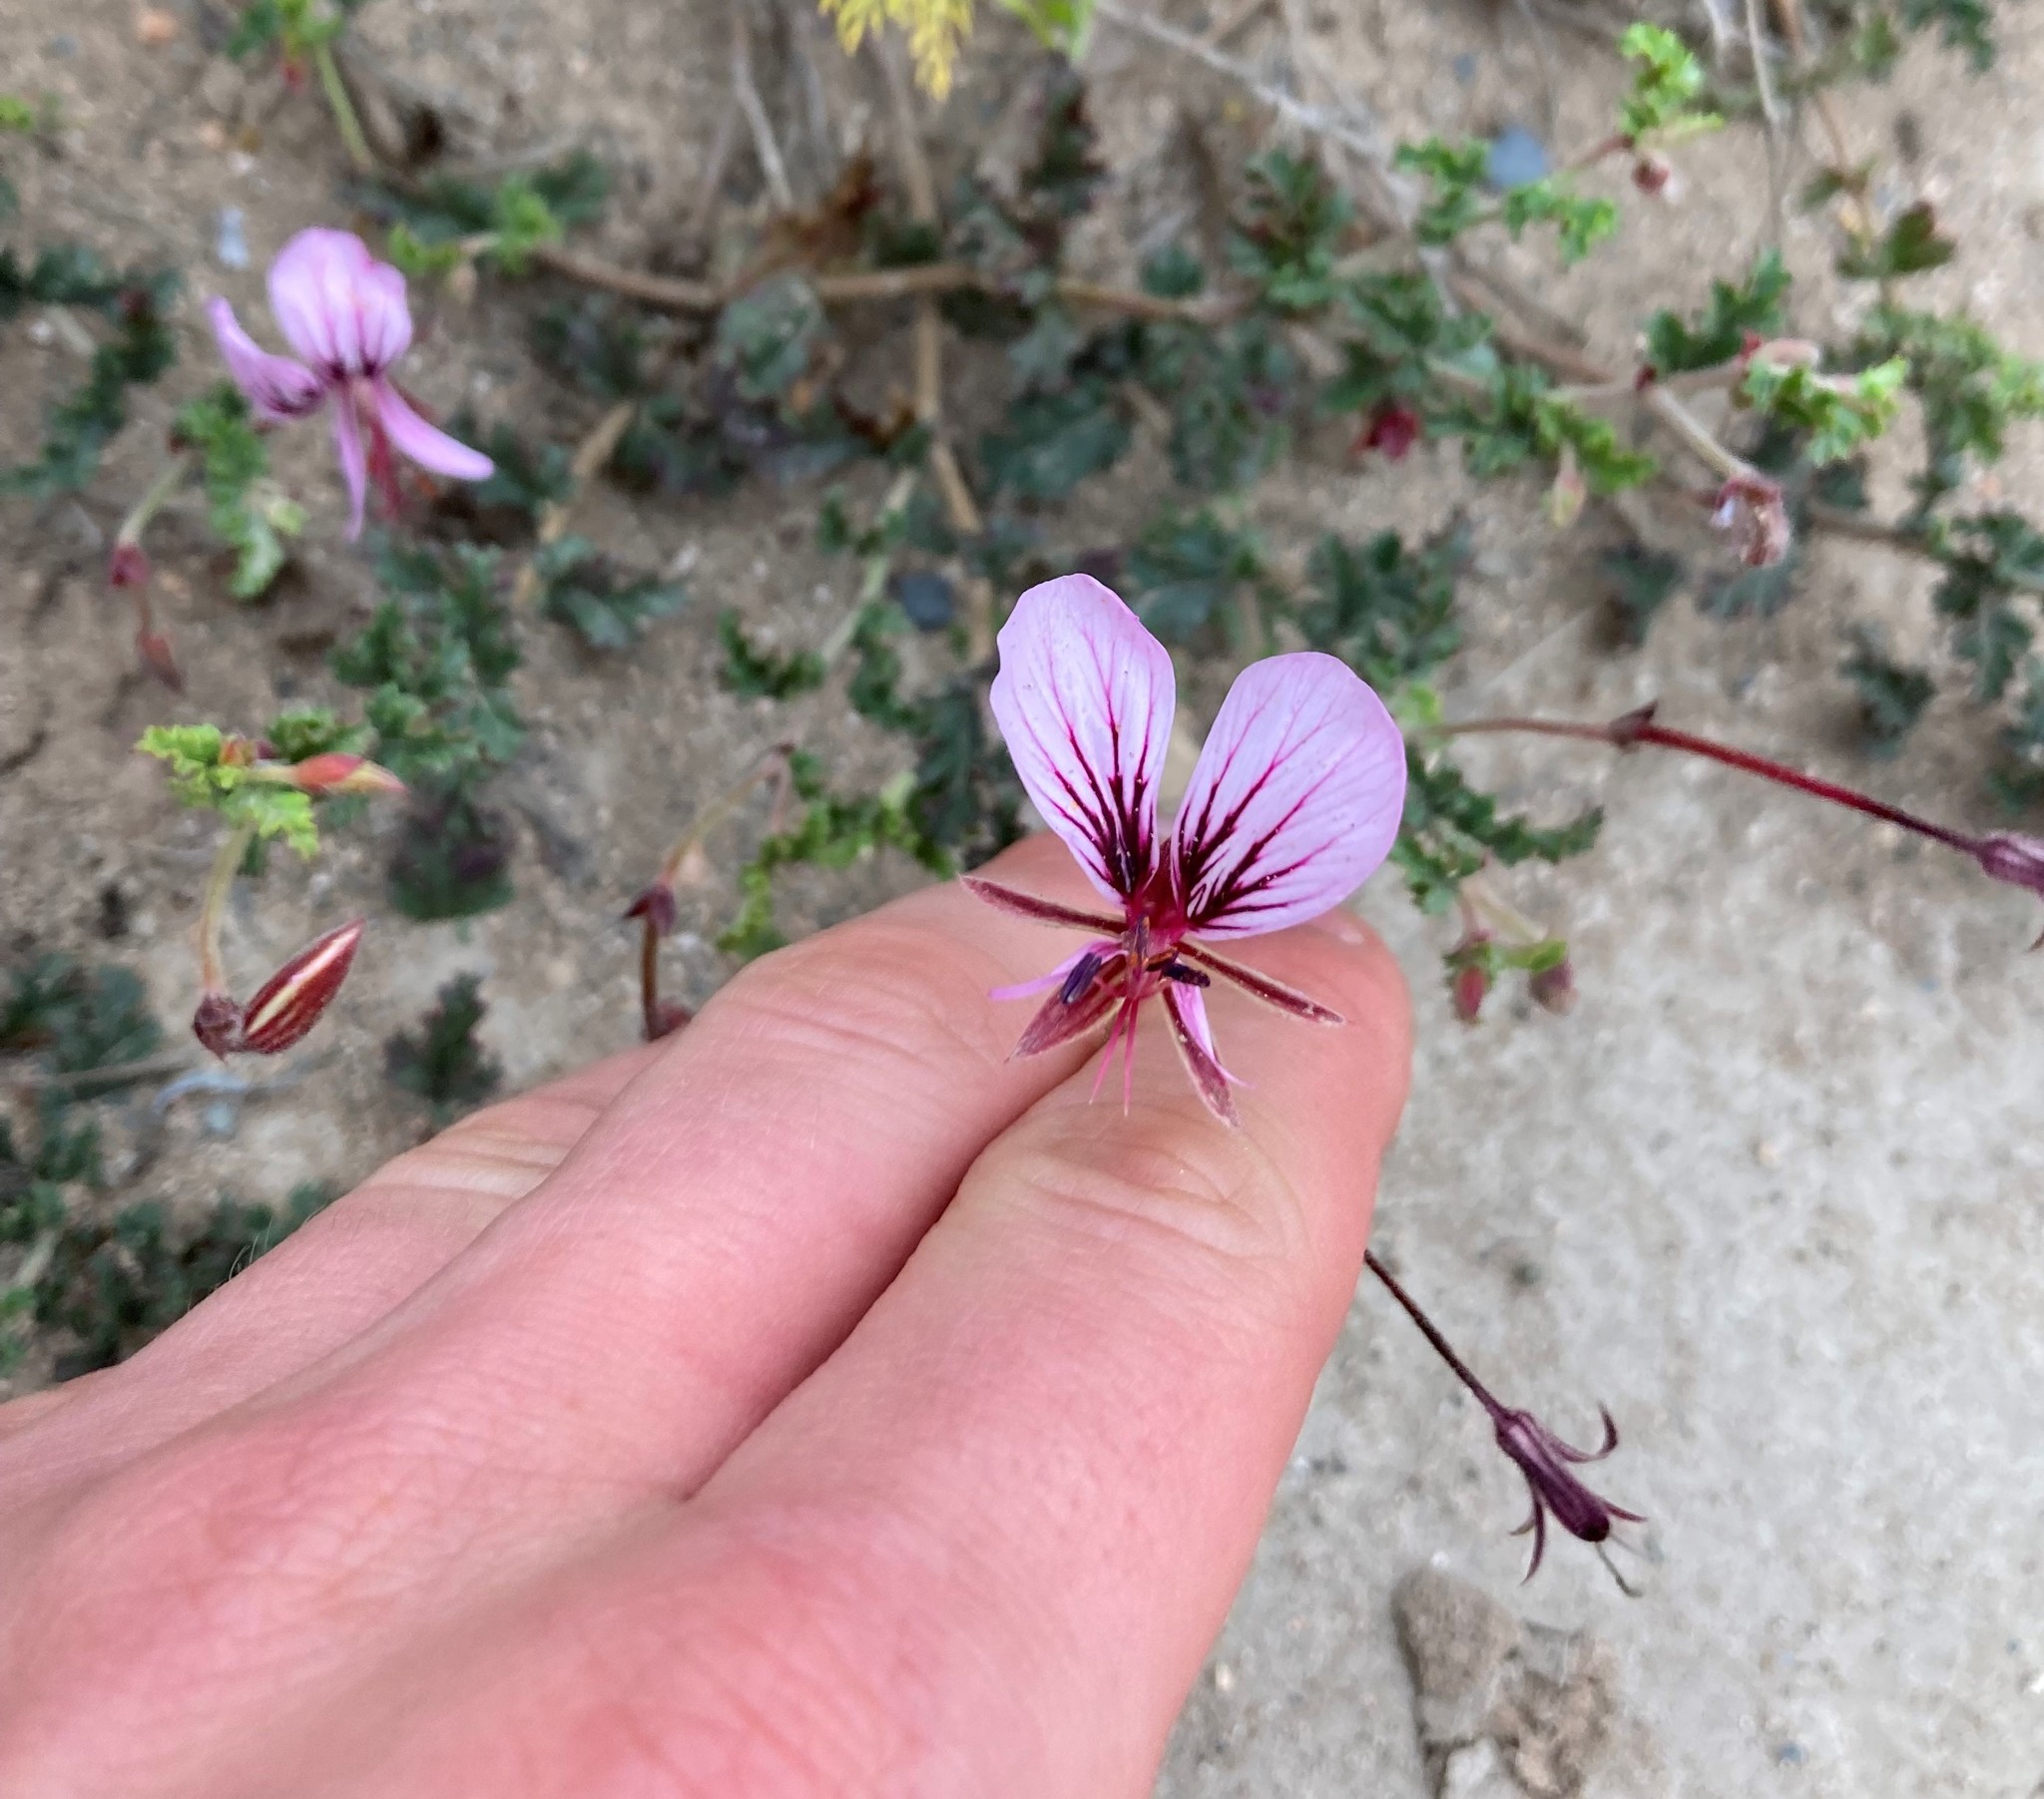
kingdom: Plantae
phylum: Tracheophyta
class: Magnoliopsida
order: Geraniales
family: Geraniaceae
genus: Pelargonium
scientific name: Pelargonium caucalifolium
